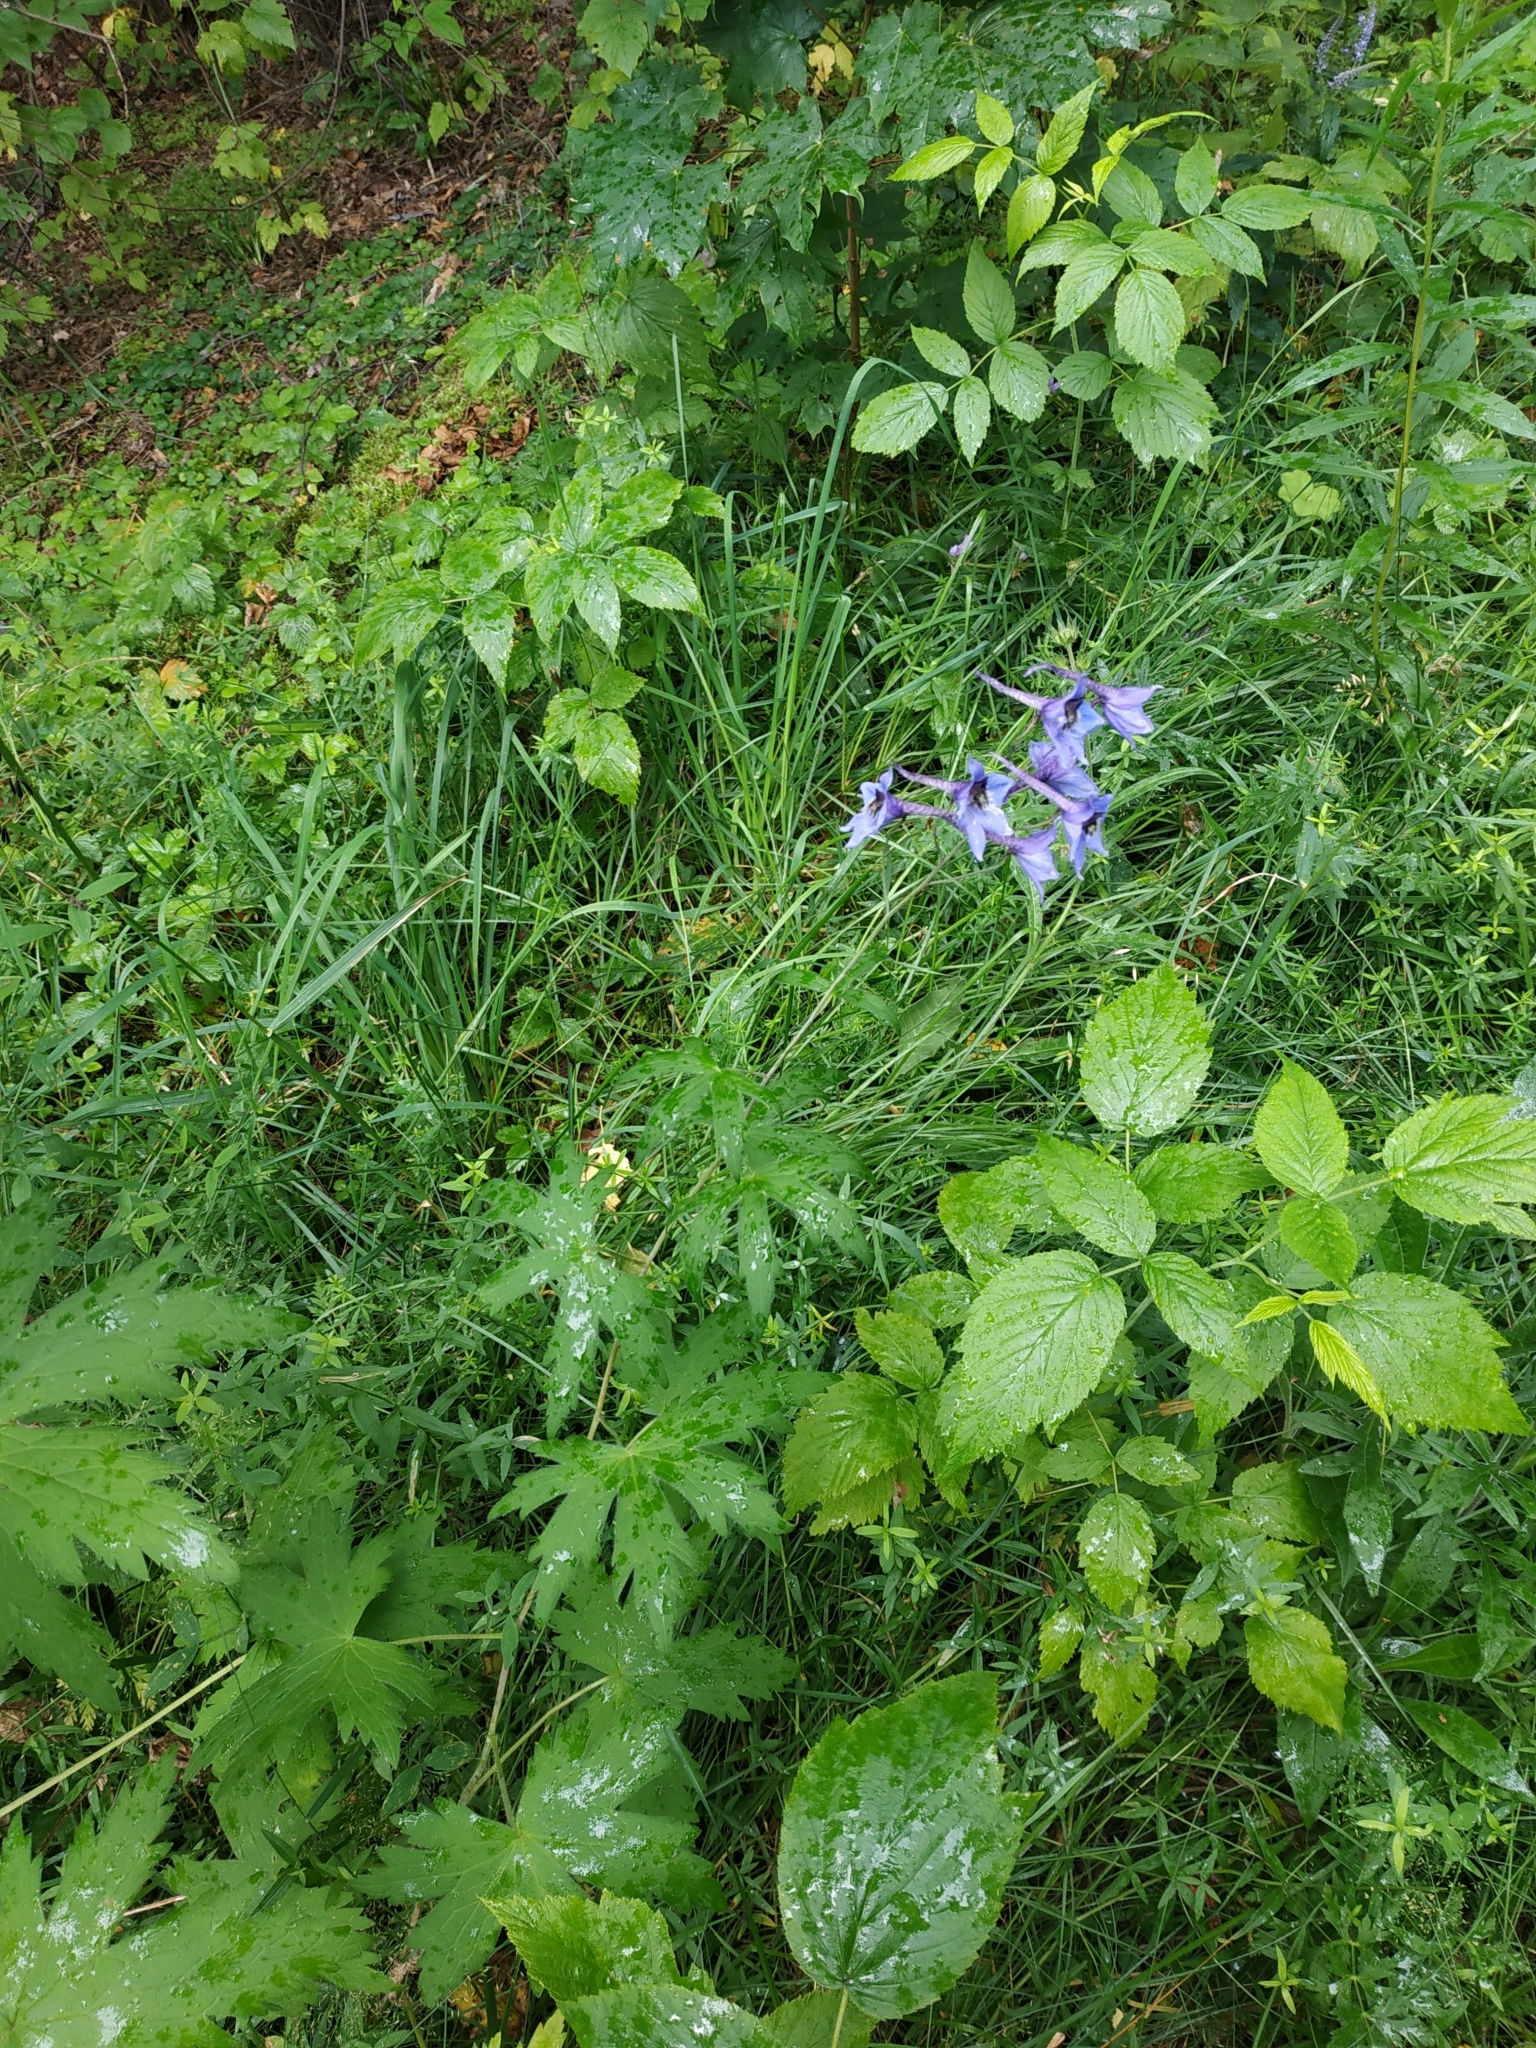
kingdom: Plantae
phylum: Tracheophyta
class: Magnoliopsida
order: Ranunculales
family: Ranunculaceae
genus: Delphinium
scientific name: Delphinium elatum
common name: Candle larkspur
